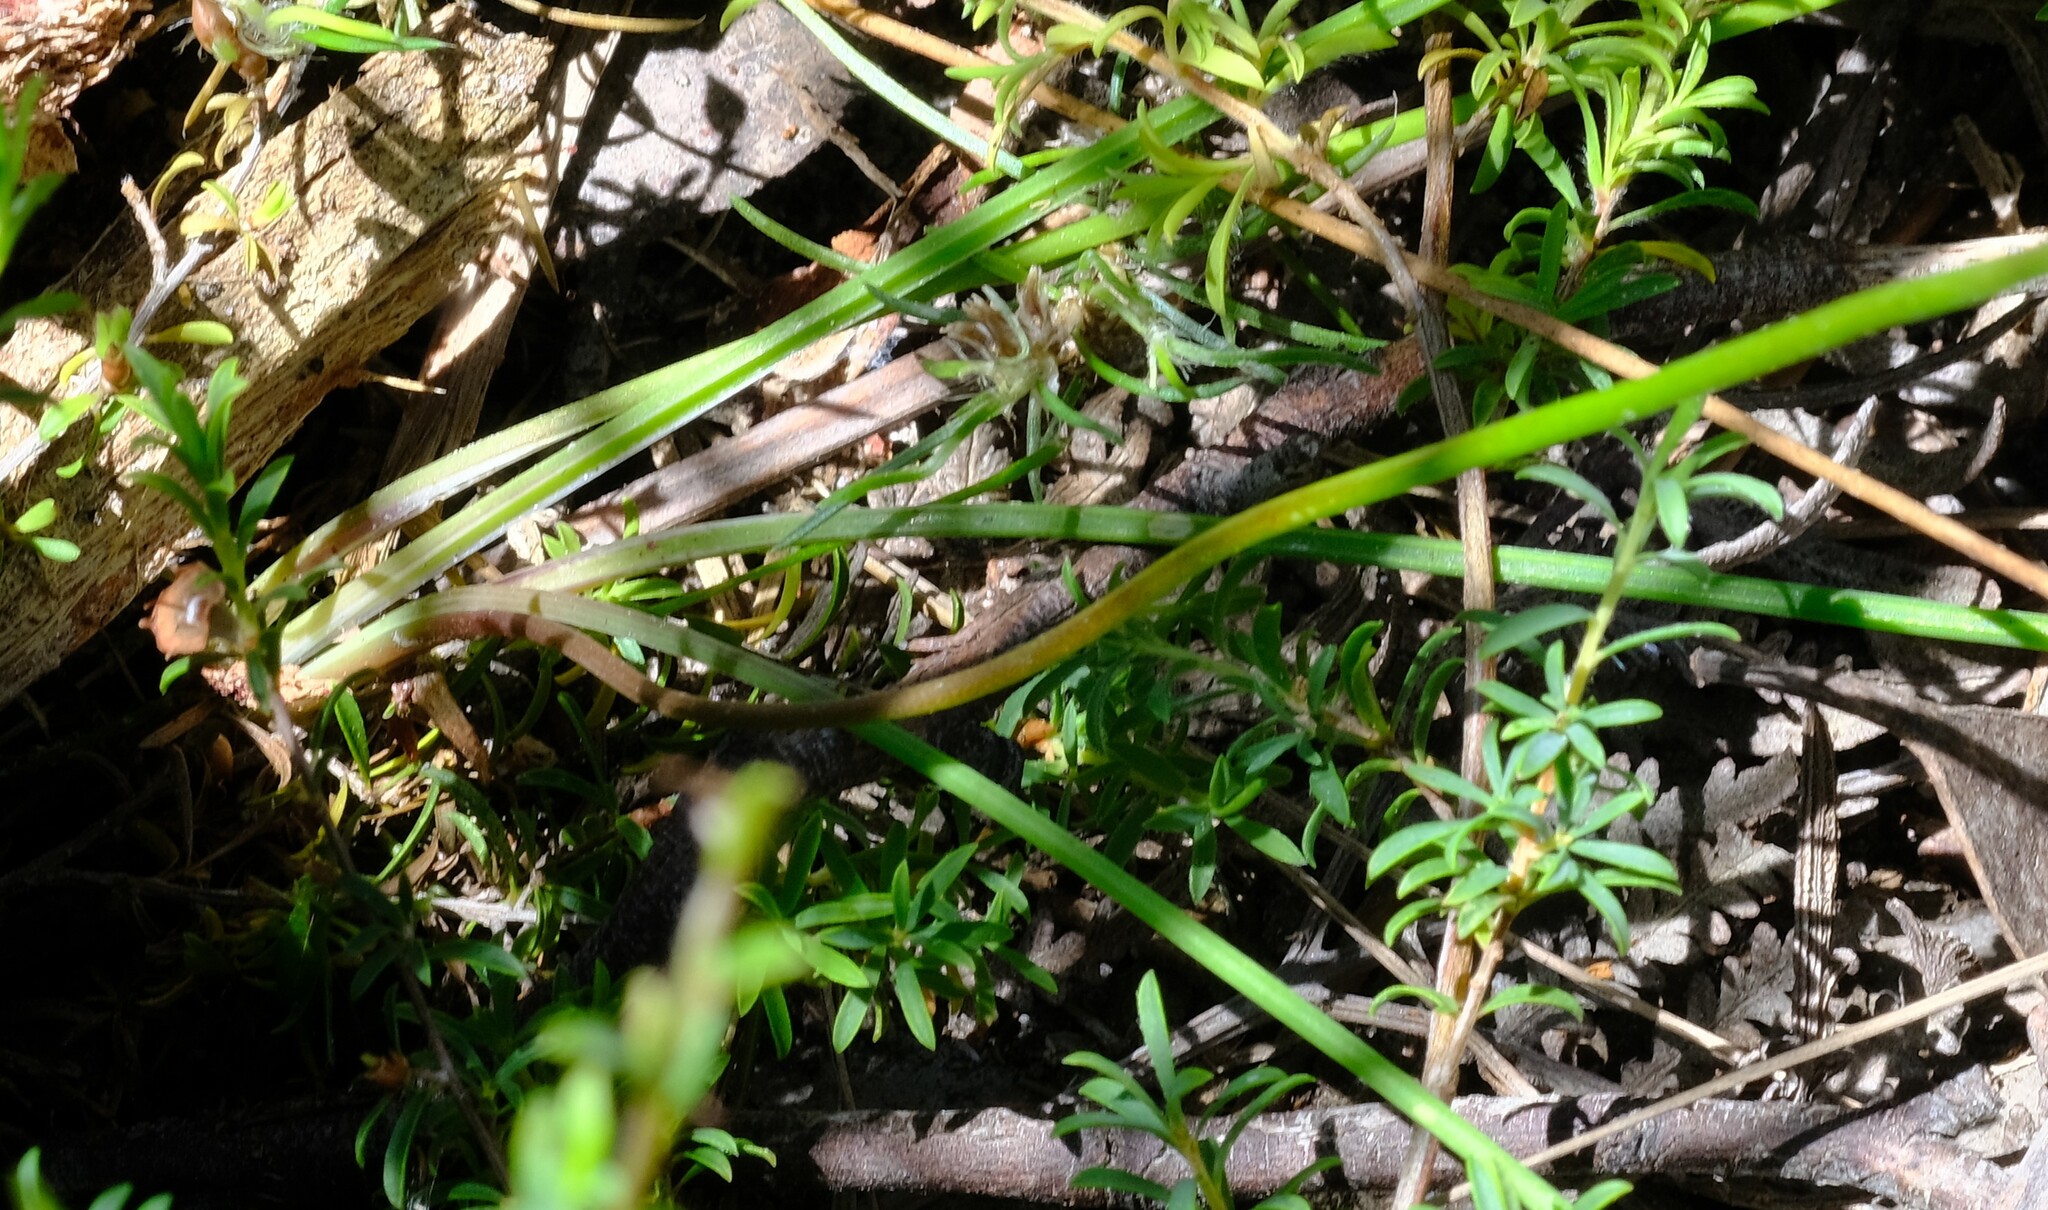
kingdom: Plantae
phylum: Tracheophyta
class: Liliopsida
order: Asparagales
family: Asparagaceae
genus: Thysanotus
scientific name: Thysanotus tuberosus
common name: Common fringed-lily
